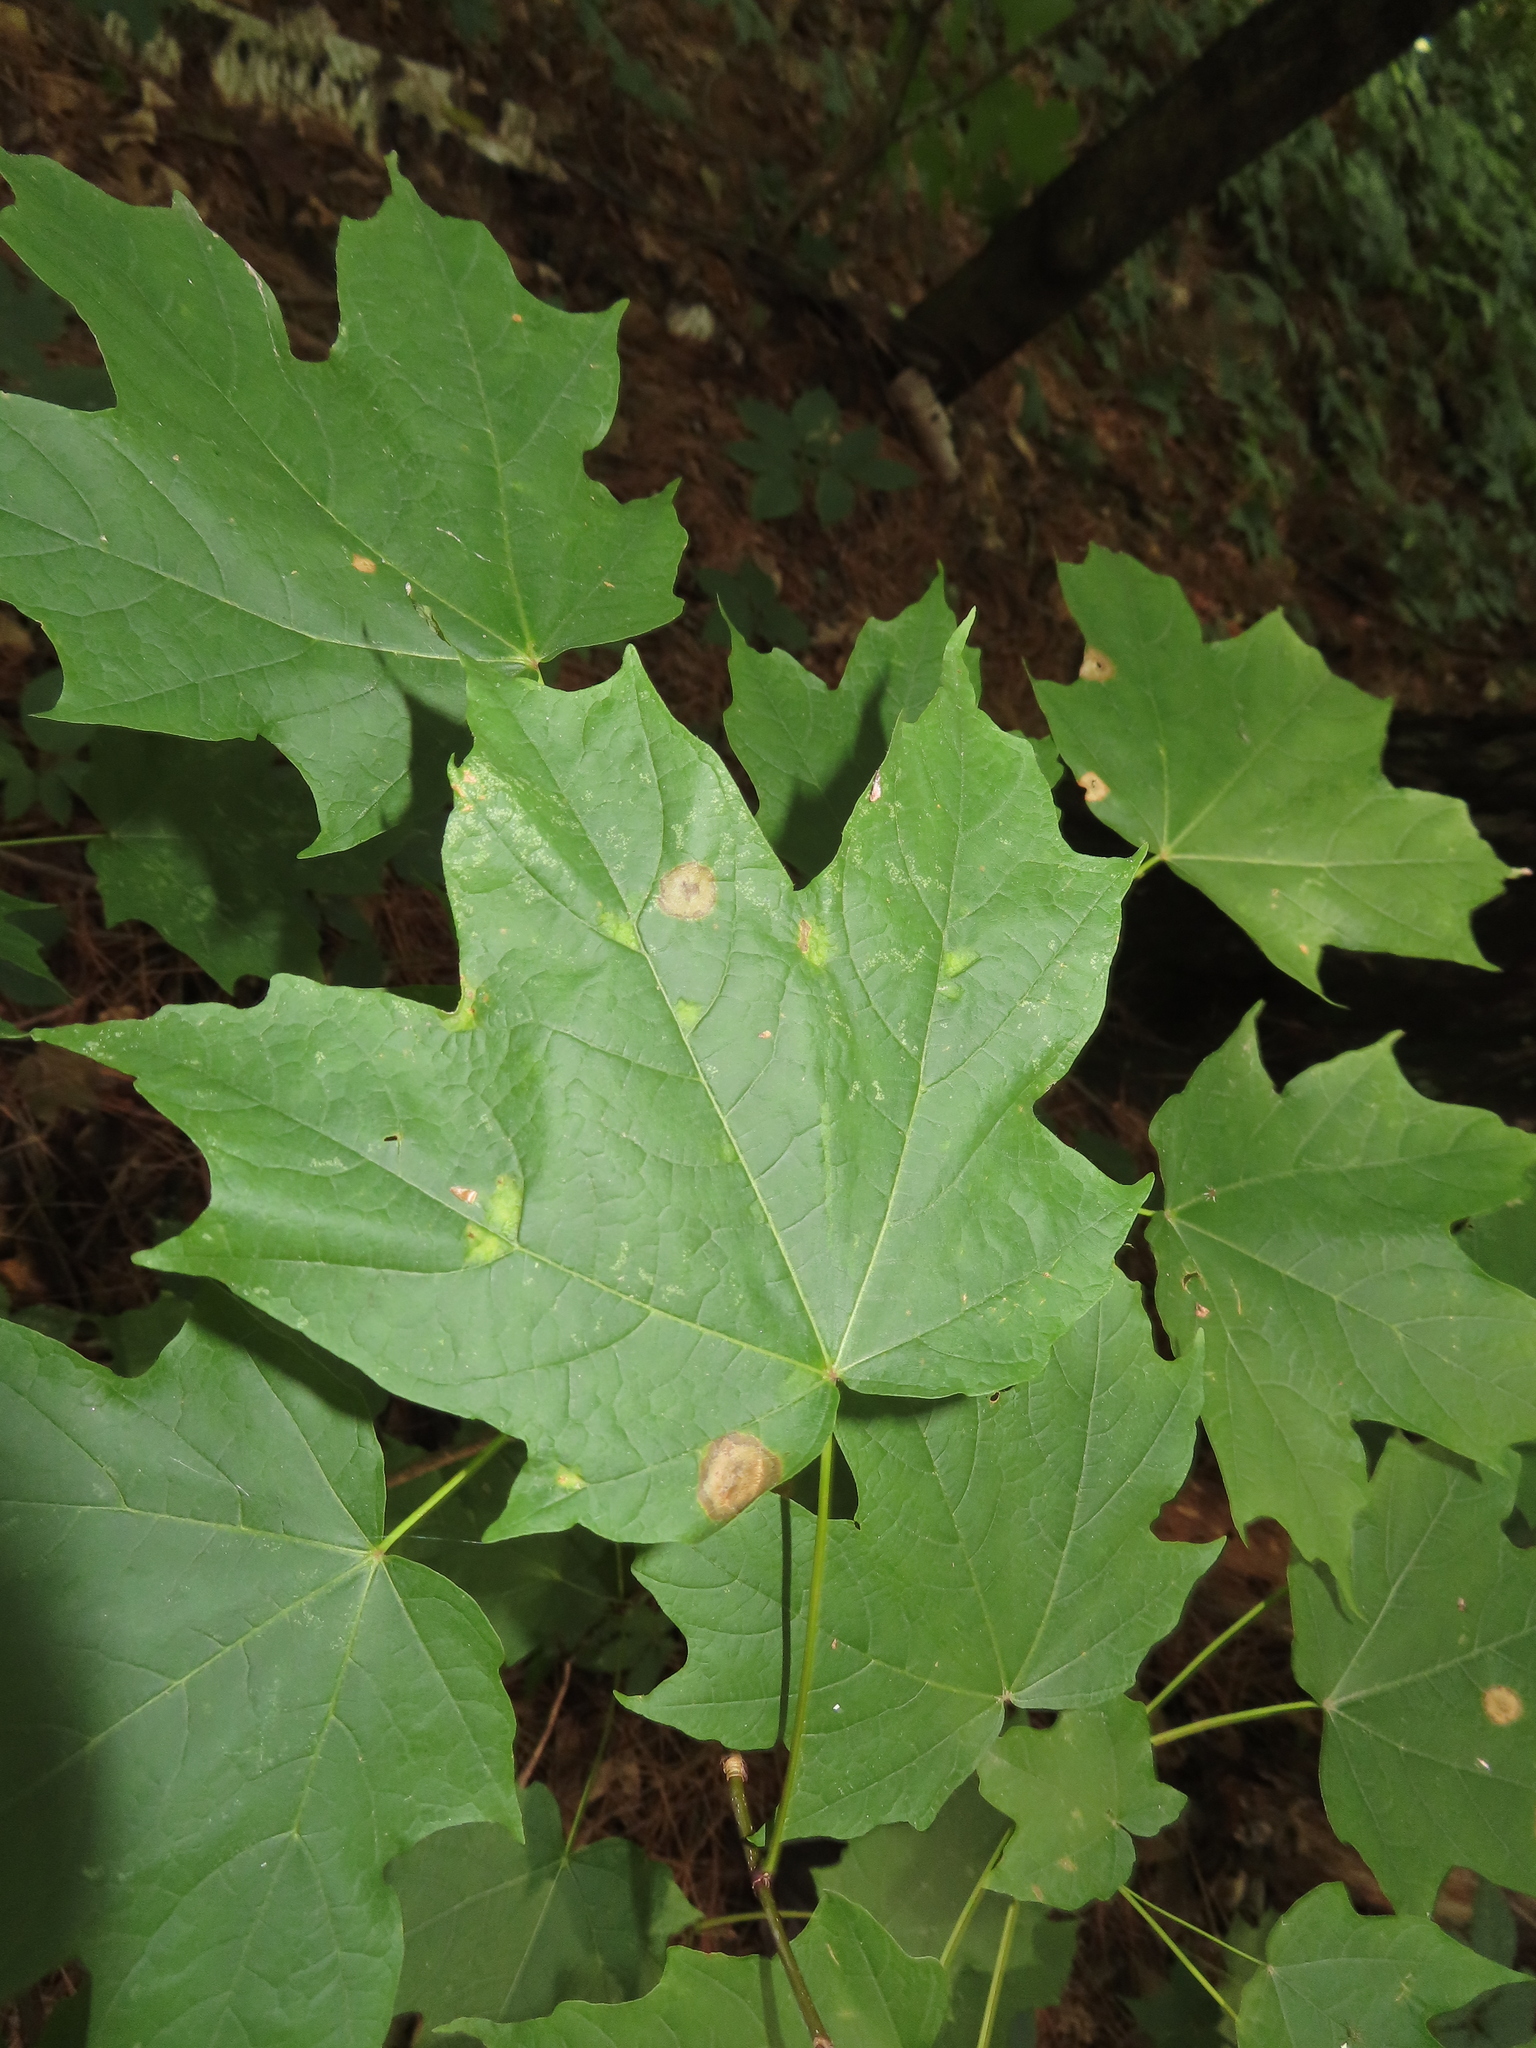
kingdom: Animalia
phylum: Arthropoda
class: Insecta
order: Diptera
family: Cecidomyiidae
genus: Acericecis
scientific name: Acericecis ocellaris
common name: Ocellate gall midge
